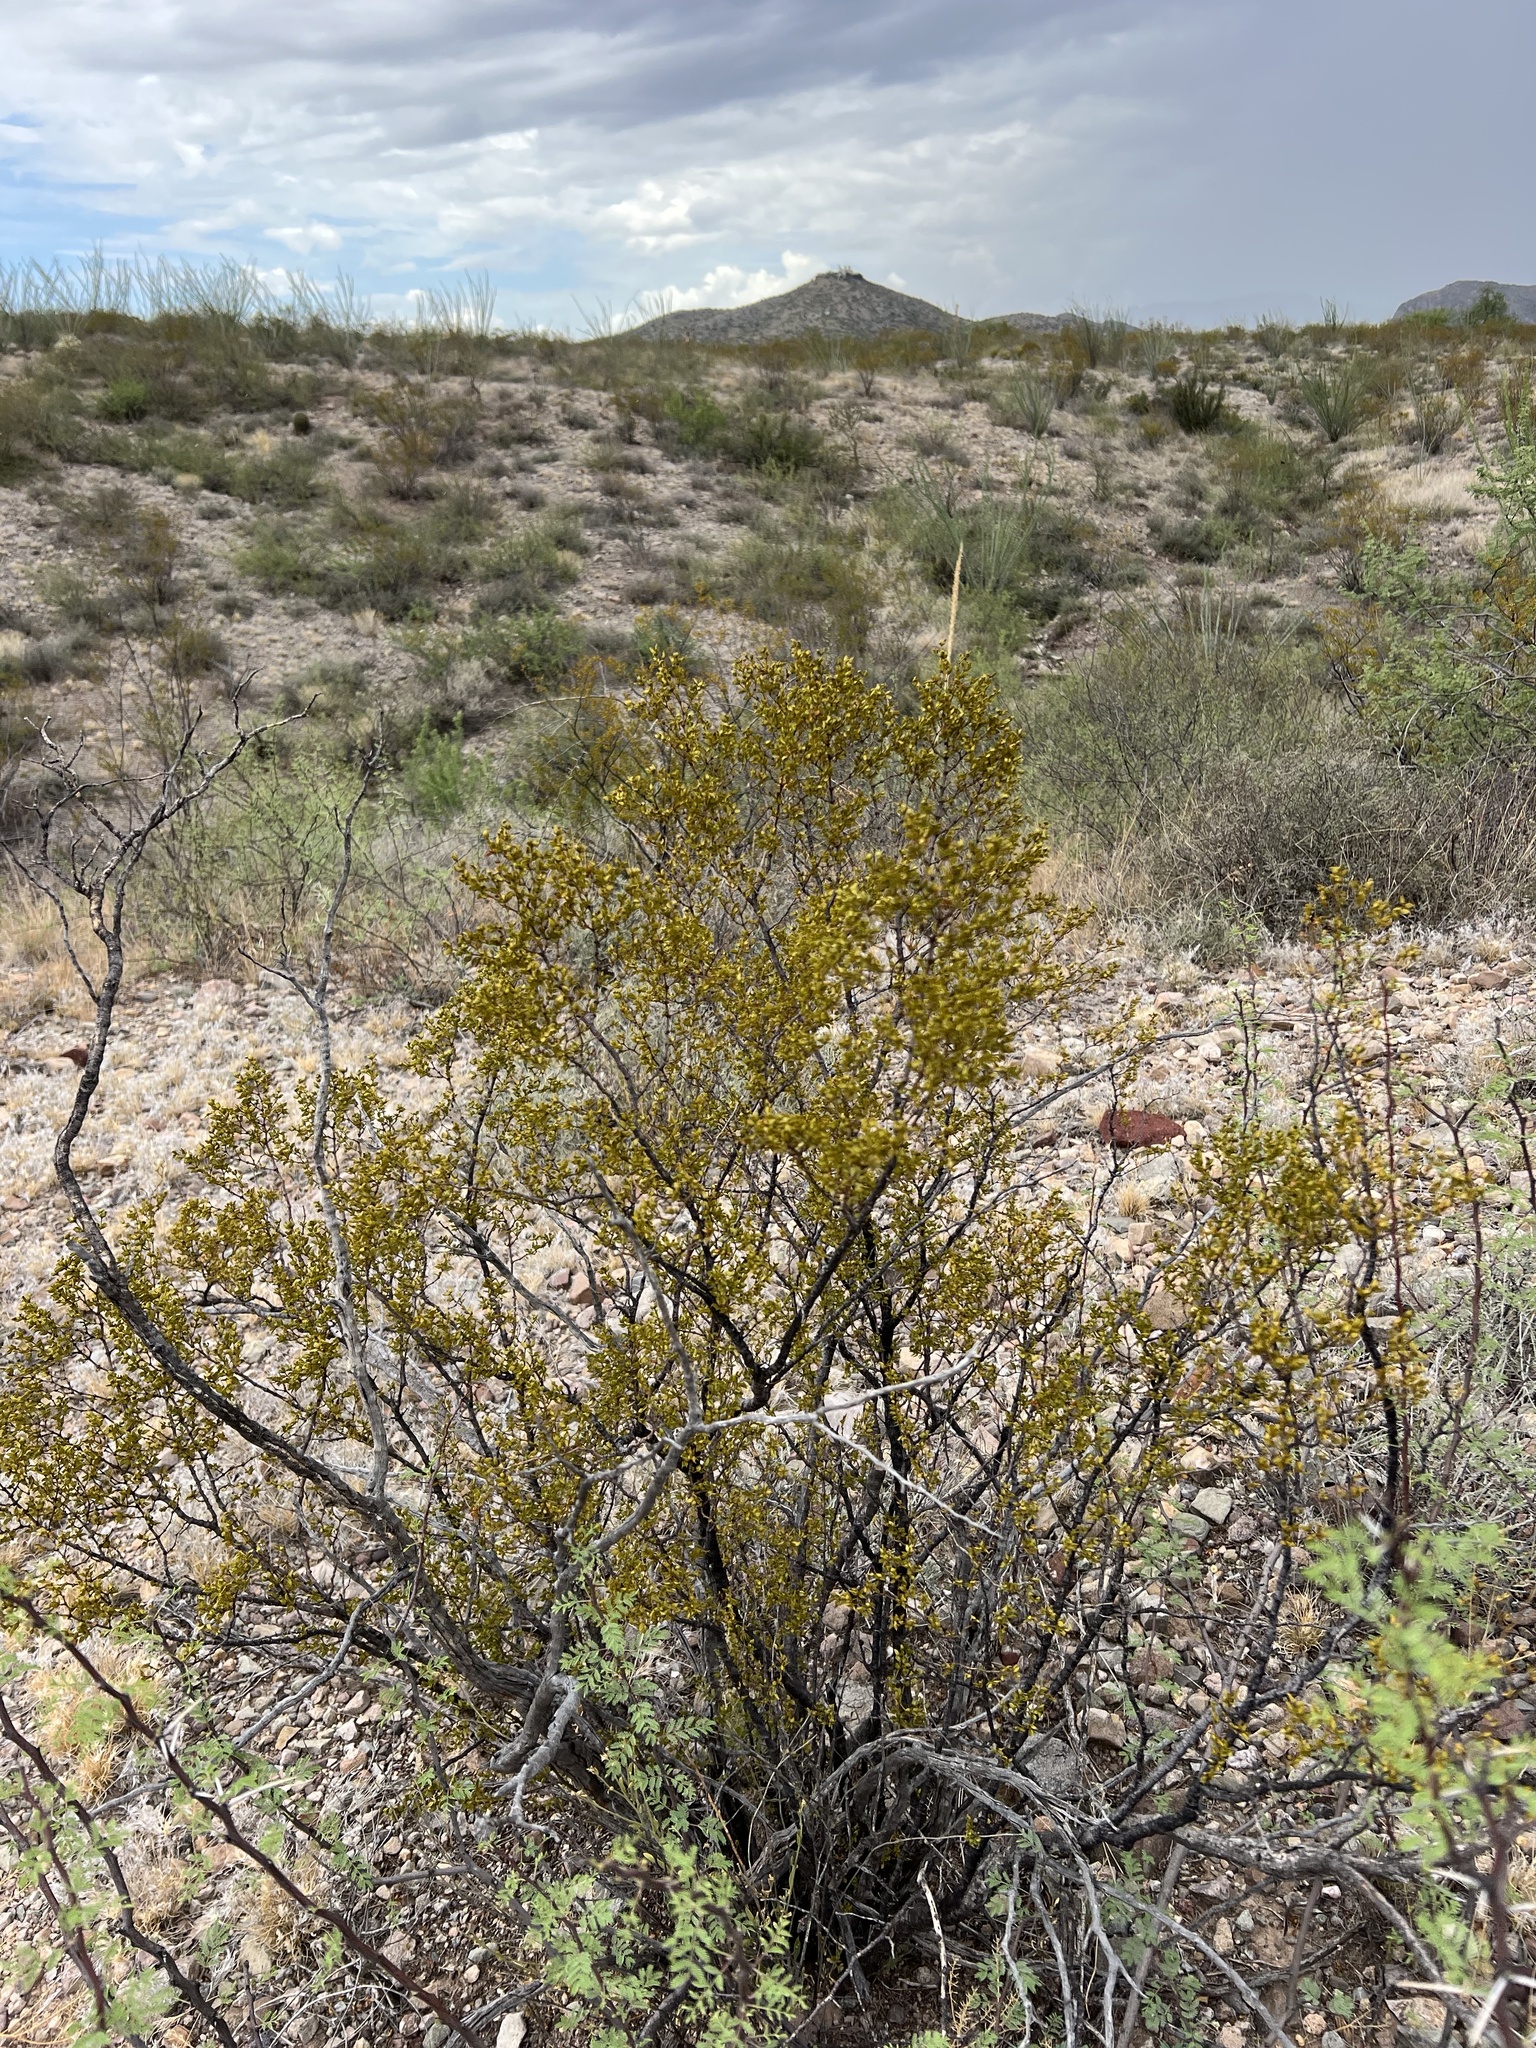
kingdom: Plantae
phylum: Tracheophyta
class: Magnoliopsida
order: Zygophyllales
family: Zygophyllaceae
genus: Larrea
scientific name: Larrea tridentata
